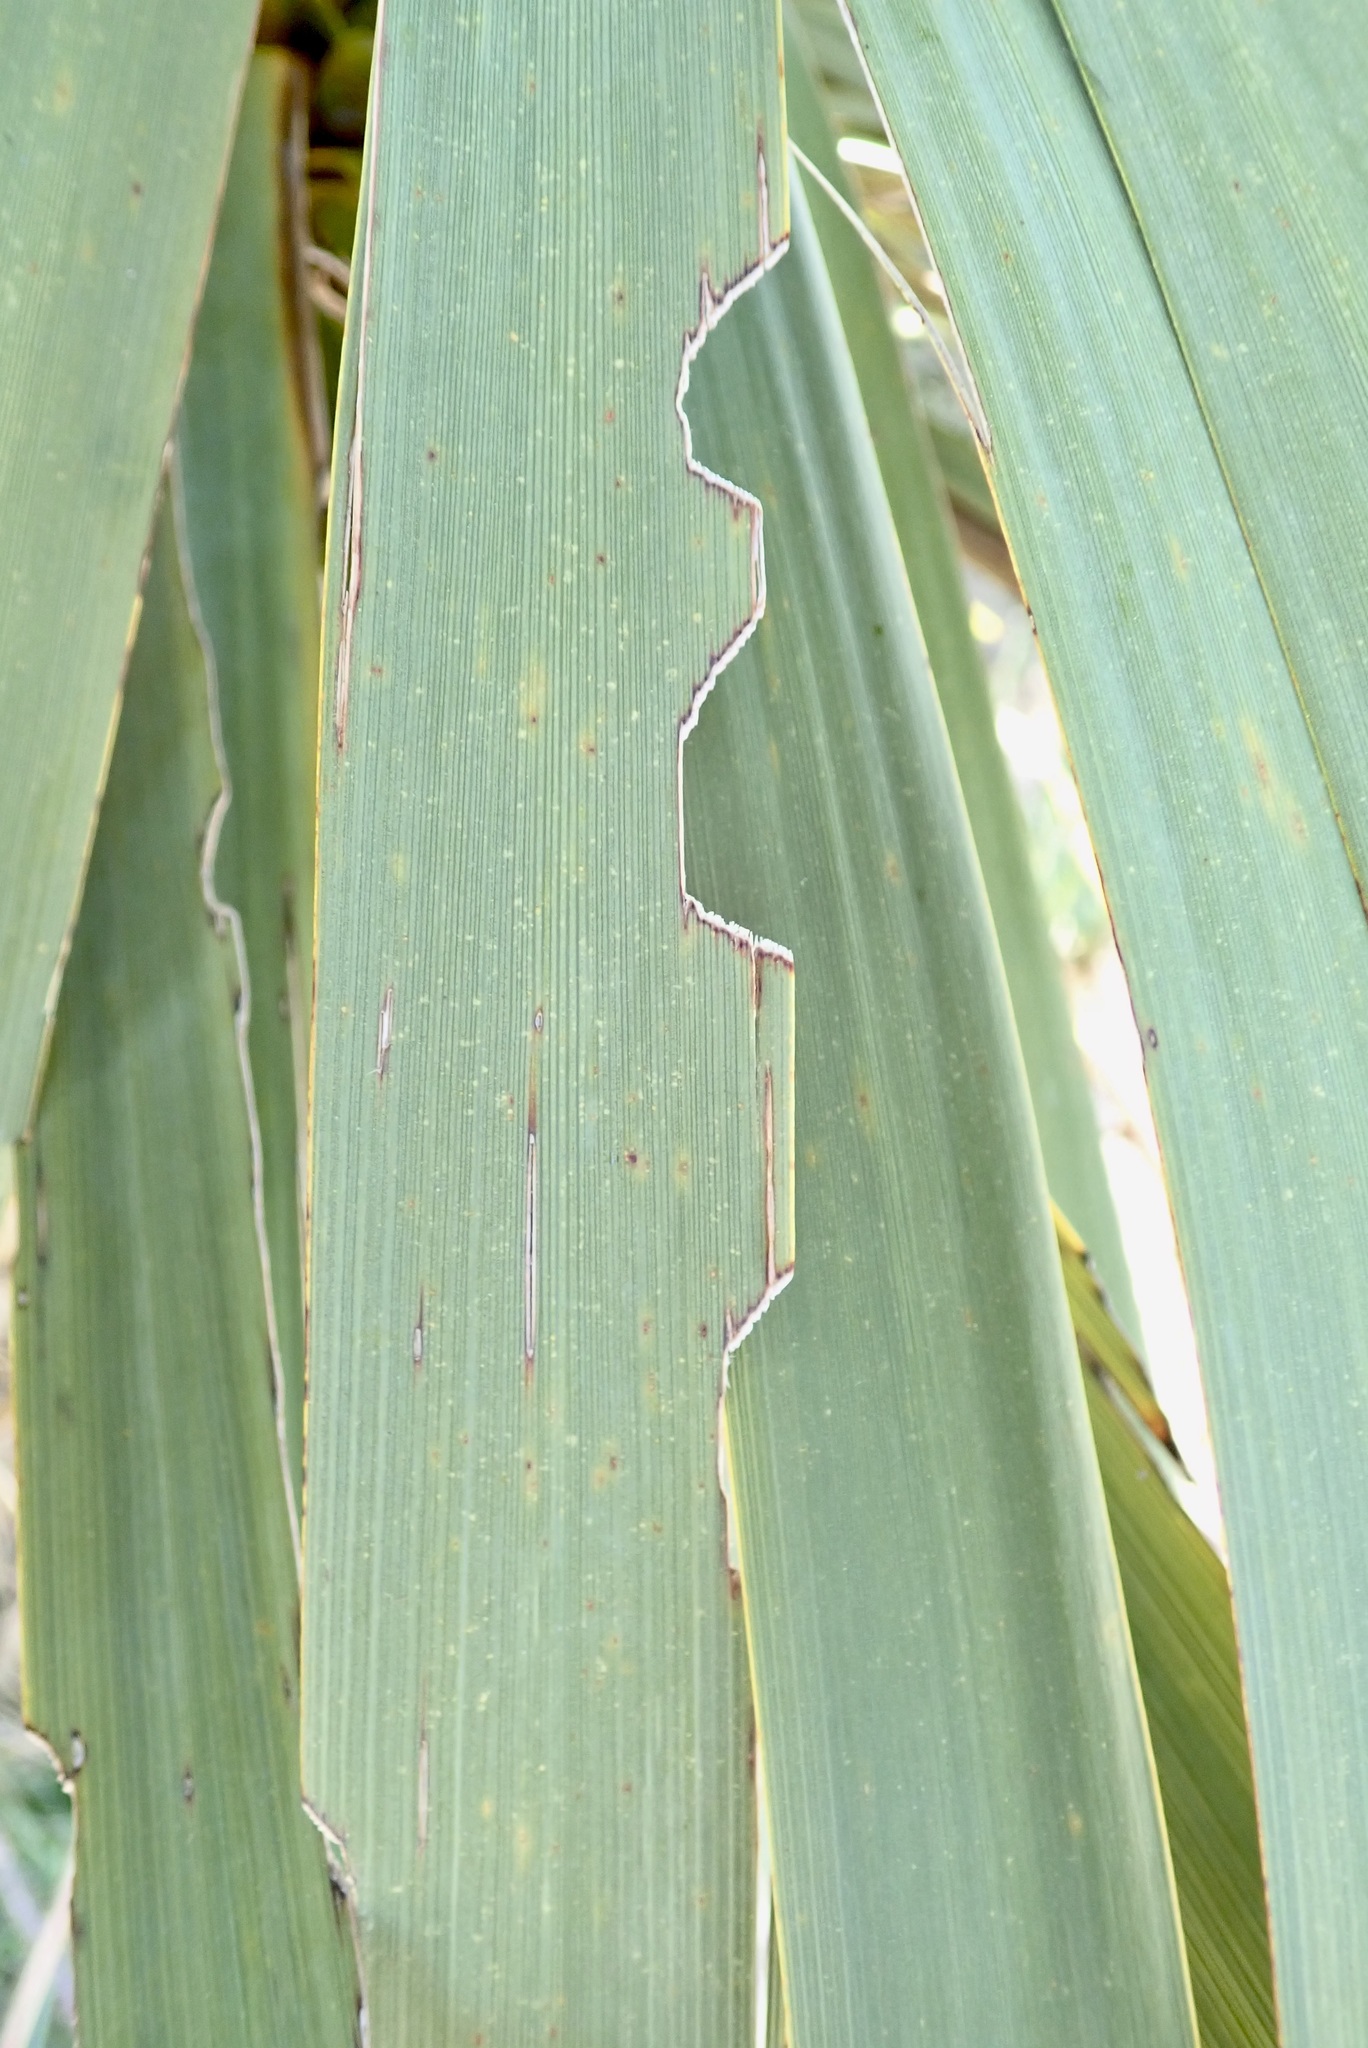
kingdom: Animalia
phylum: Arthropoda
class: Insecta
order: Lepidoptera
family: Geometridae
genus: Epiphryne
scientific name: Epiphryne verriculata
